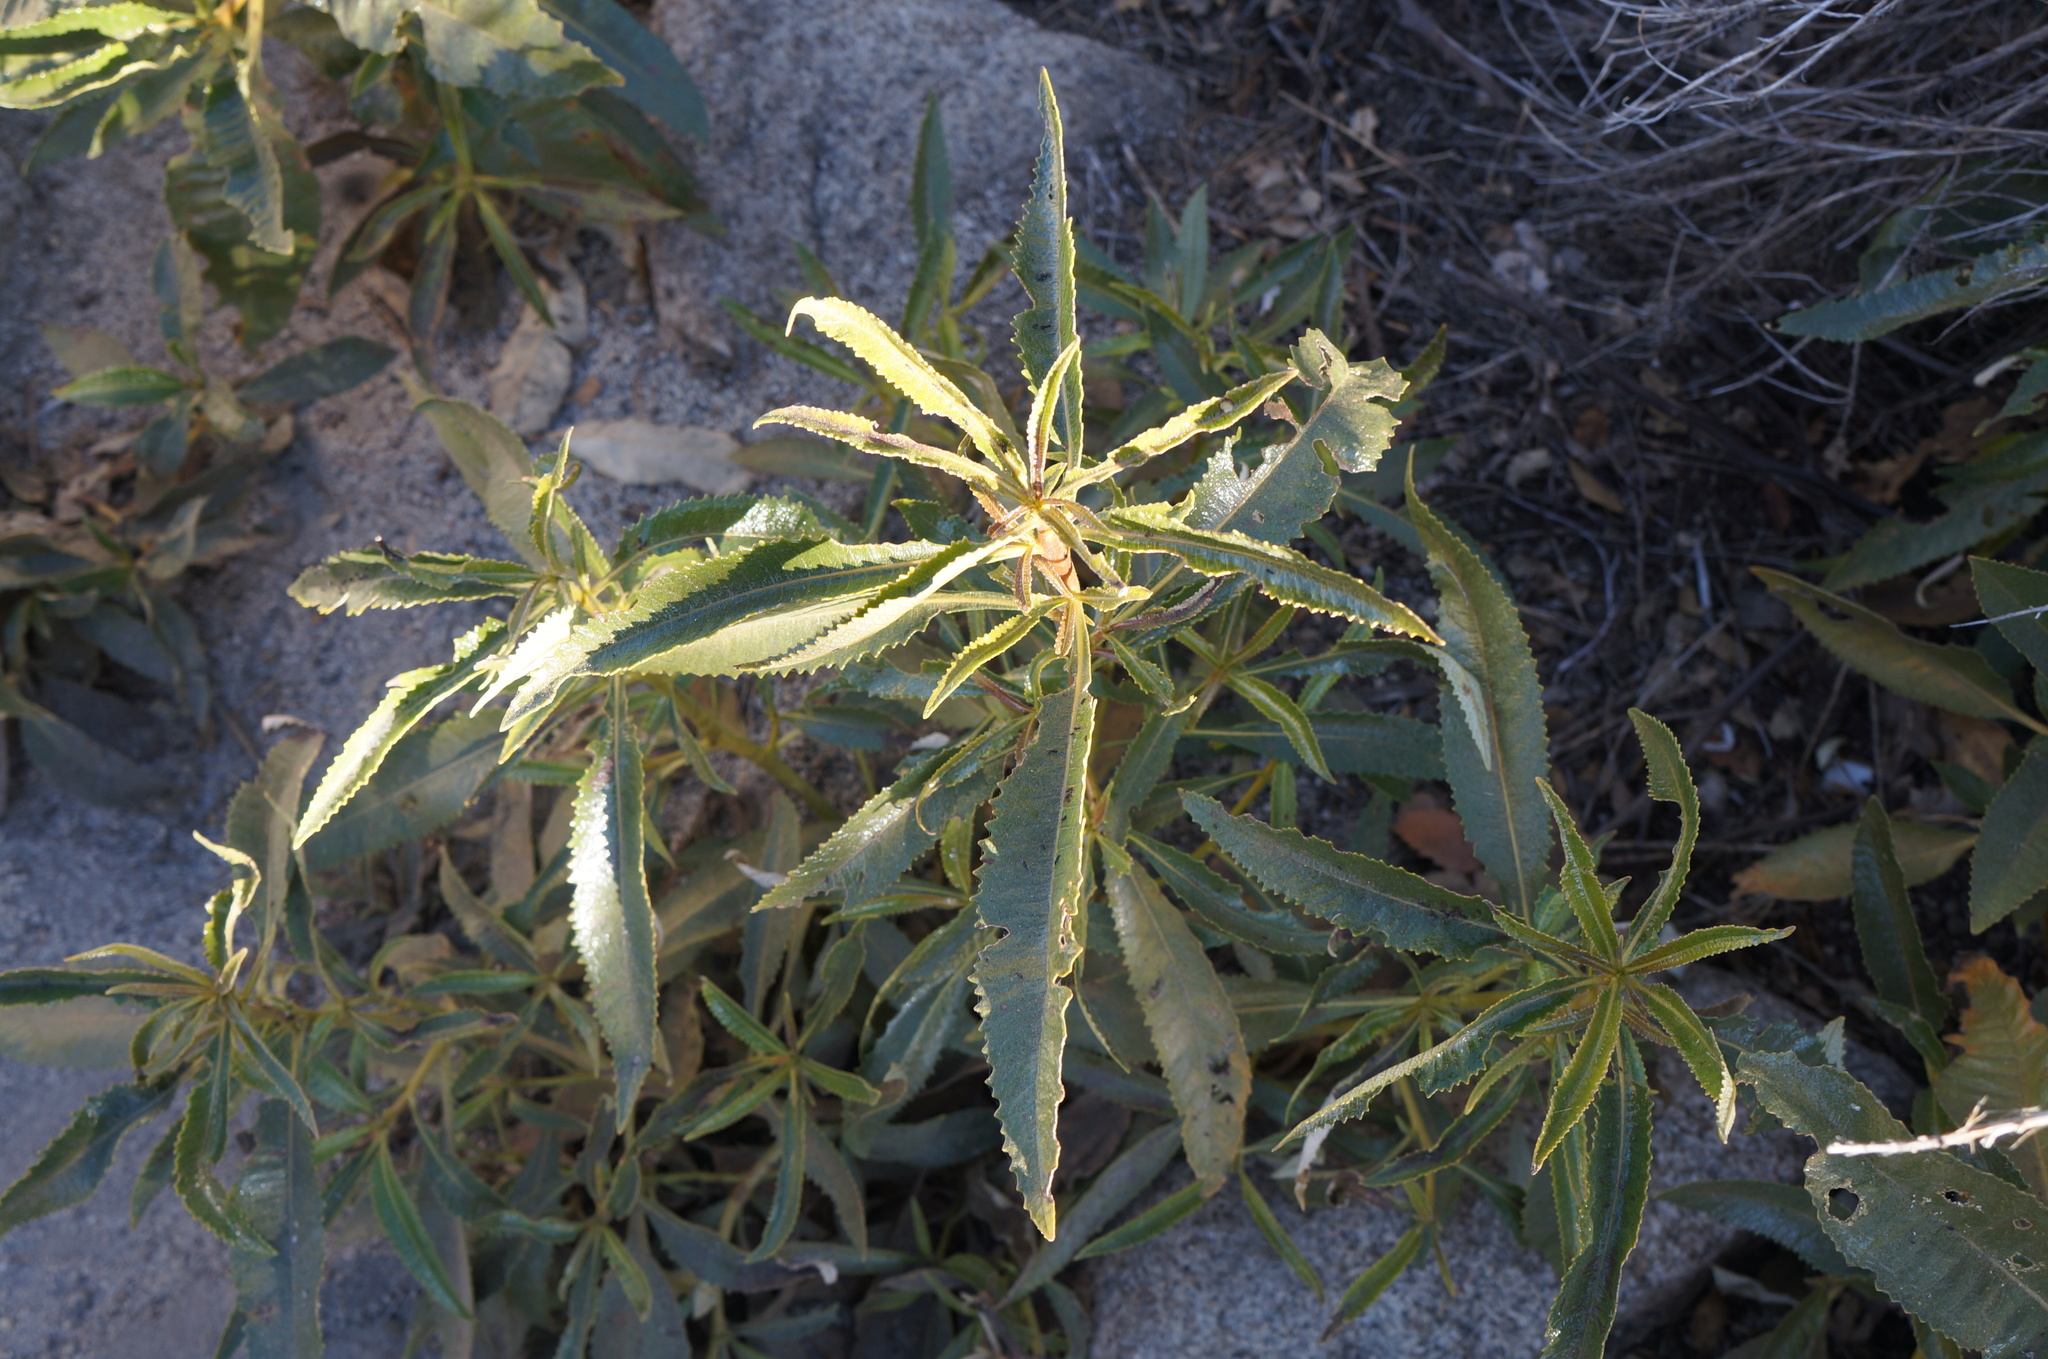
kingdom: Plantae
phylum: Tracheophyta
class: Magnoliopsida
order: Boraginales
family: Namaceae
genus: Eriodictyon
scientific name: Eriodictyon californicum
